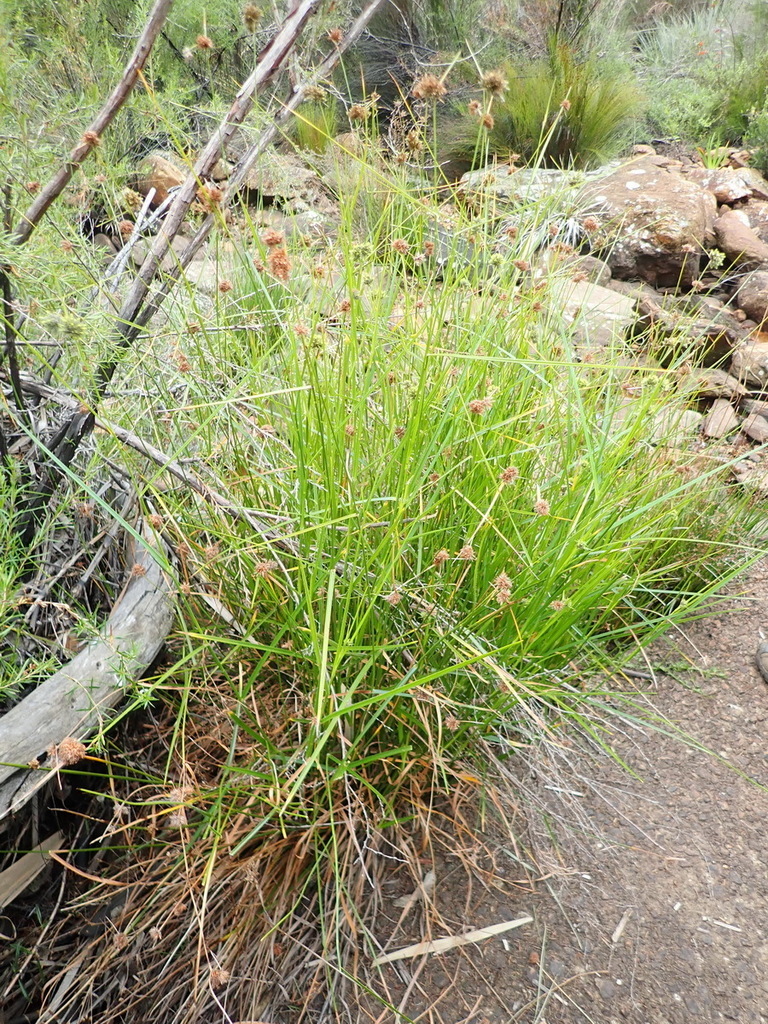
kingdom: Plantae
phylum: Tracheophyta
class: Liliopsida
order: Poales
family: Cyperaceae
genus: Fuirena
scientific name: Fuirena hirsuta
